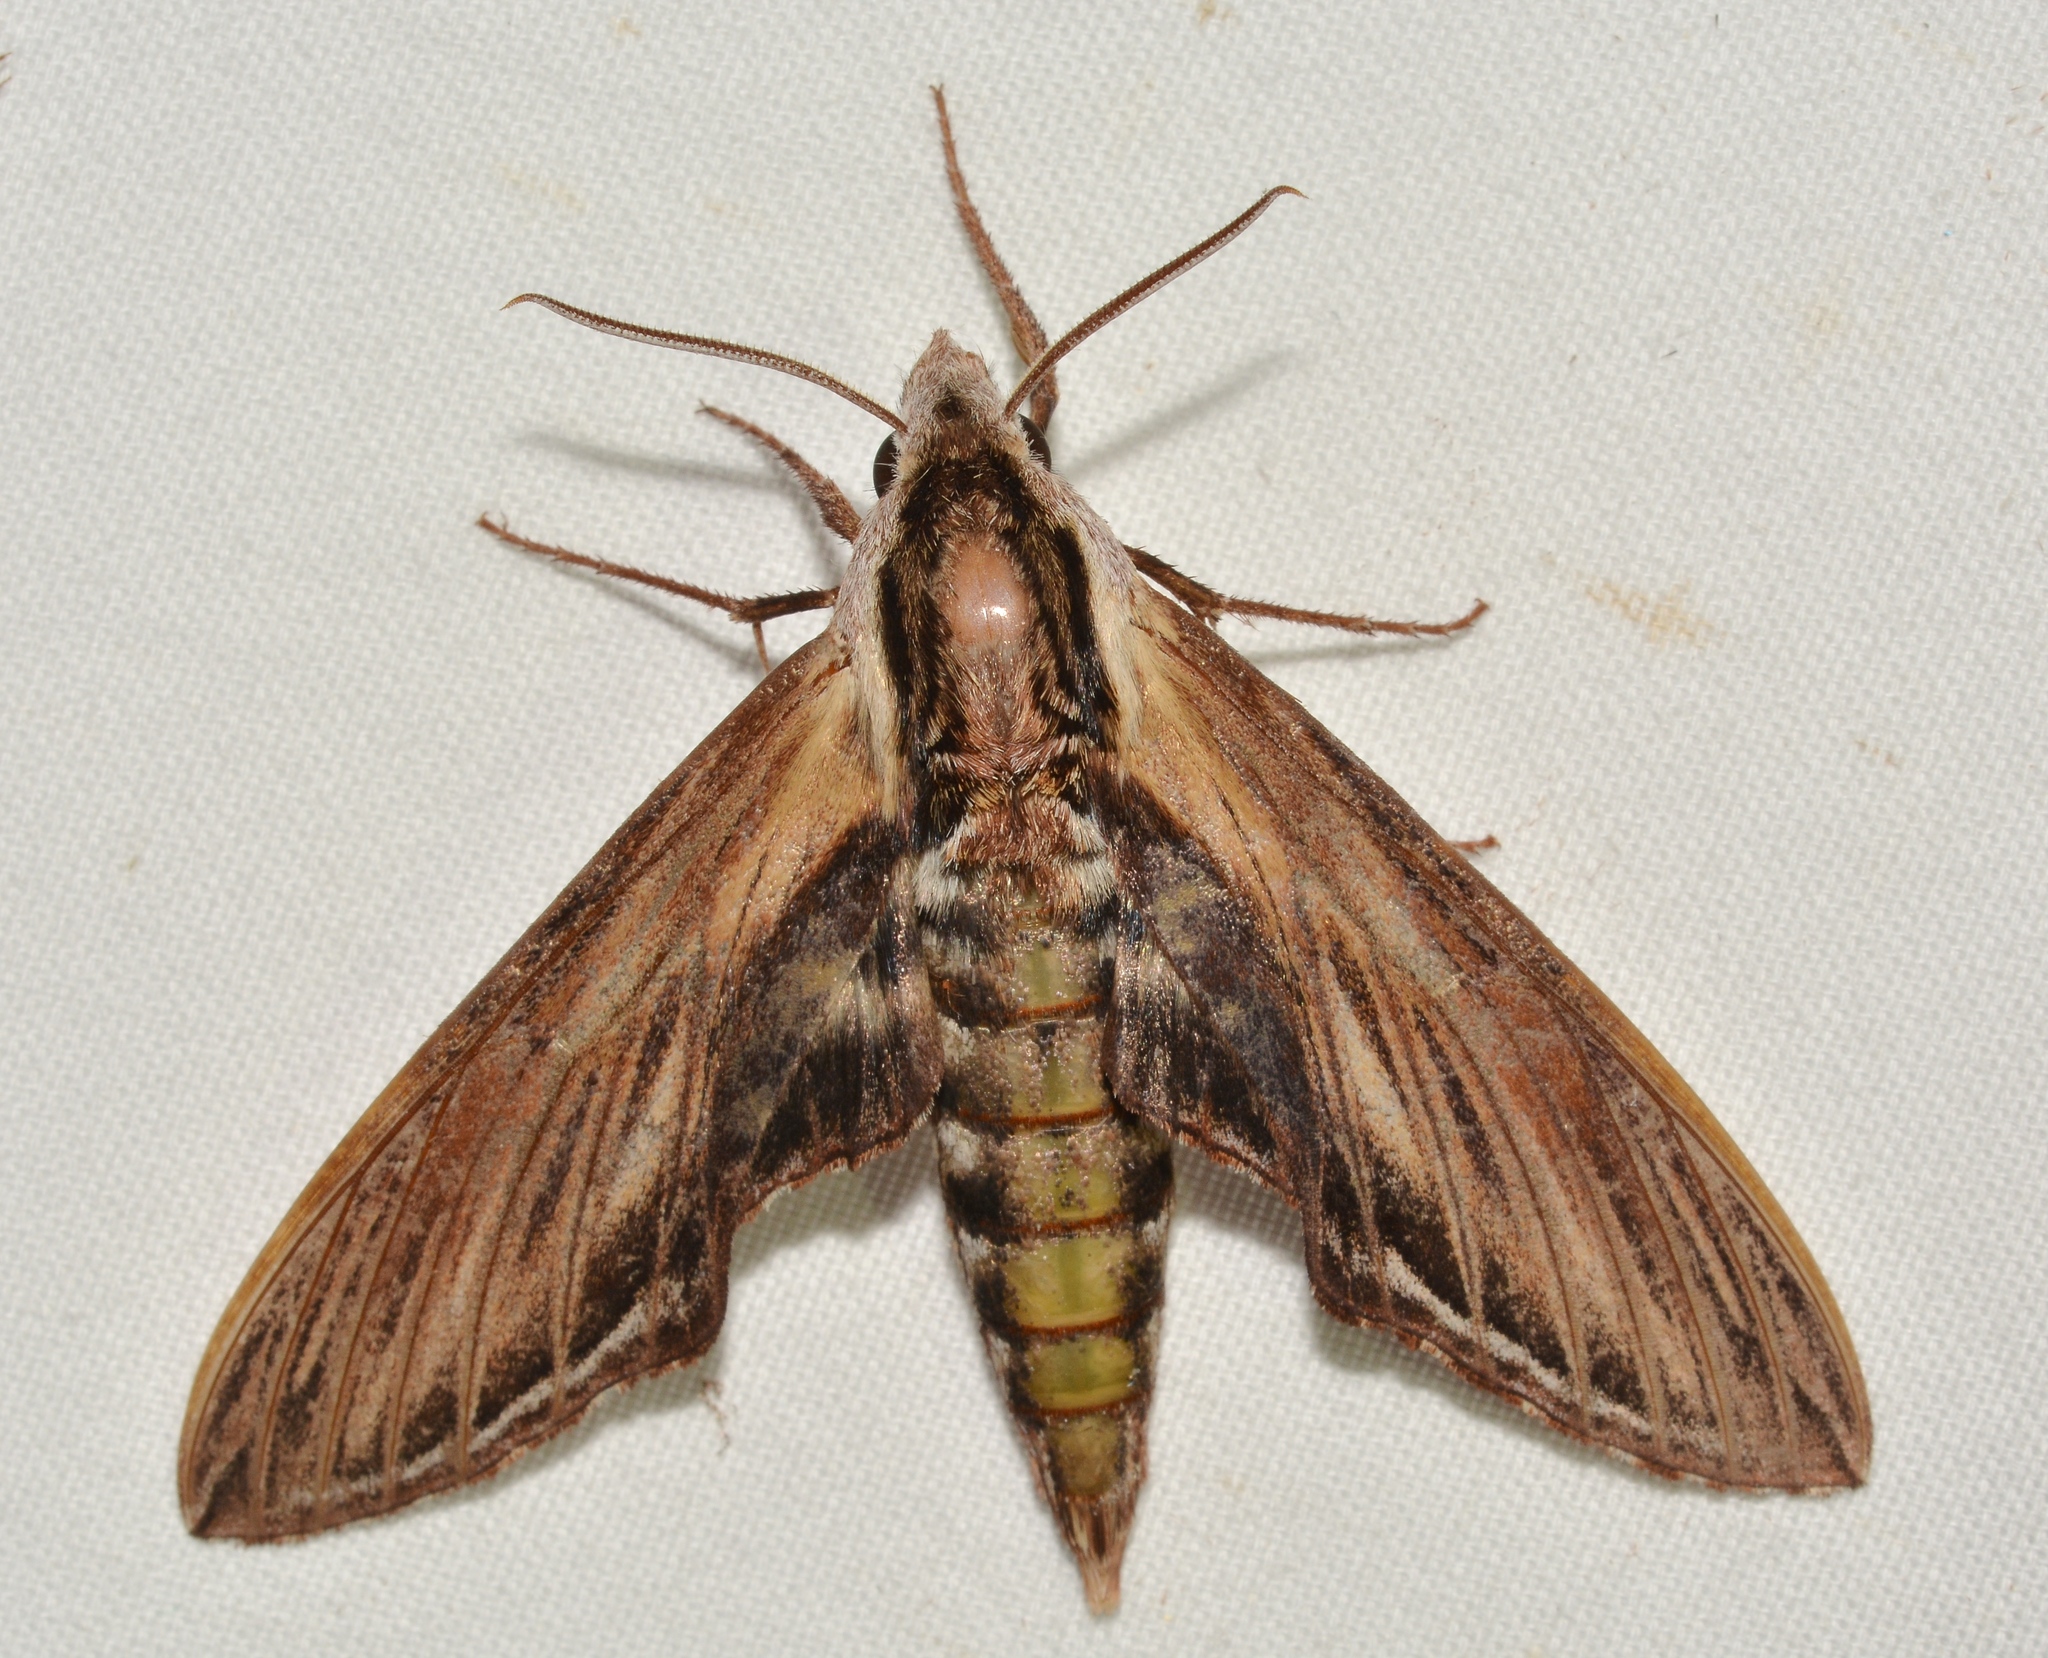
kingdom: Animalia
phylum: Arthropoda
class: Insecta
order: Lepidoptera
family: Sphingidae
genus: Sphinx
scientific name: Sphinx kalmiae
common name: Laurel sphinx
